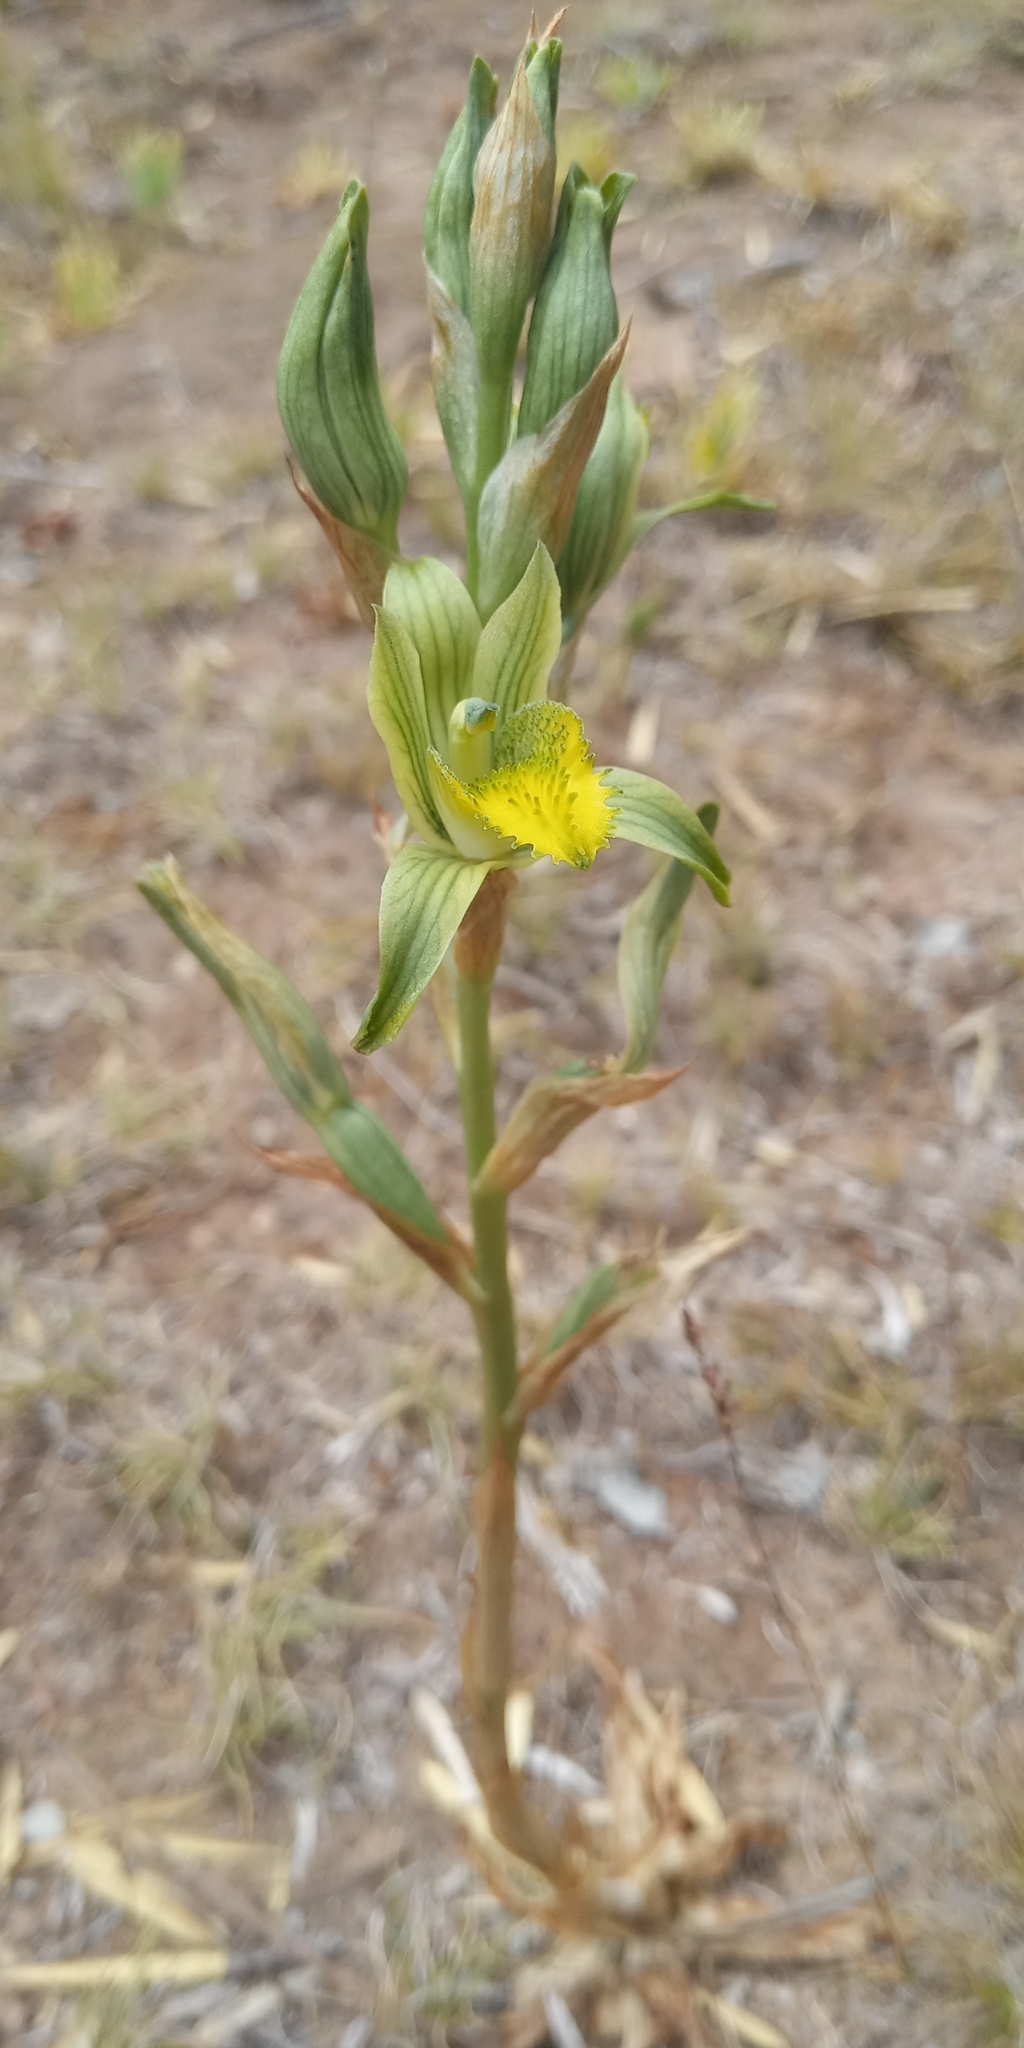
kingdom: Plantae
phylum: Tracheophyta
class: Liliopsida
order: Asparagales
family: Orchidaceae
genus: Chloraea
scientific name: Chloraea cristata
